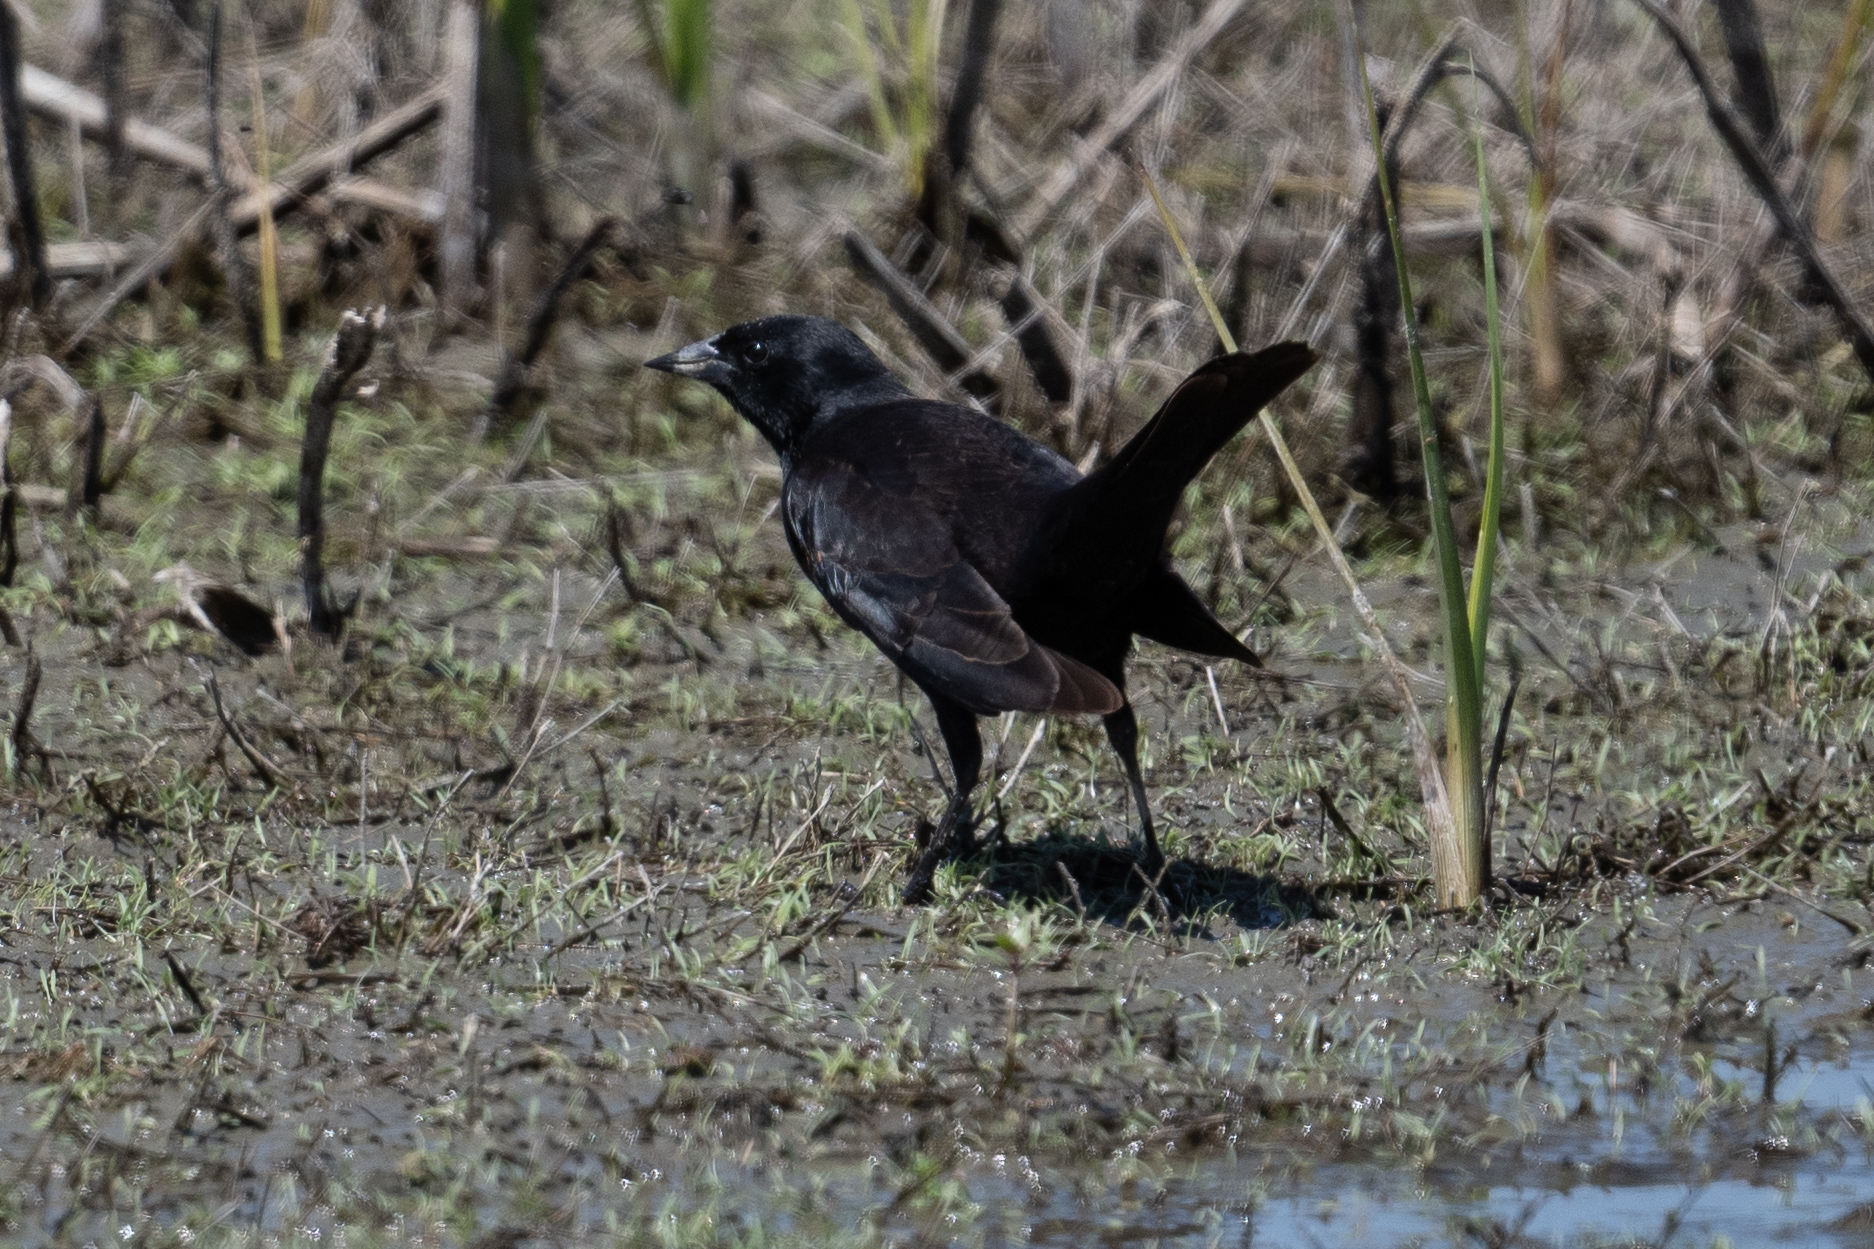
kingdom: Animalia
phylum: Chordata
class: Aves
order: Passeriformes
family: Icteridae
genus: Agelaius
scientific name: Agelaius phoeniceus
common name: Red-winged blackbird
